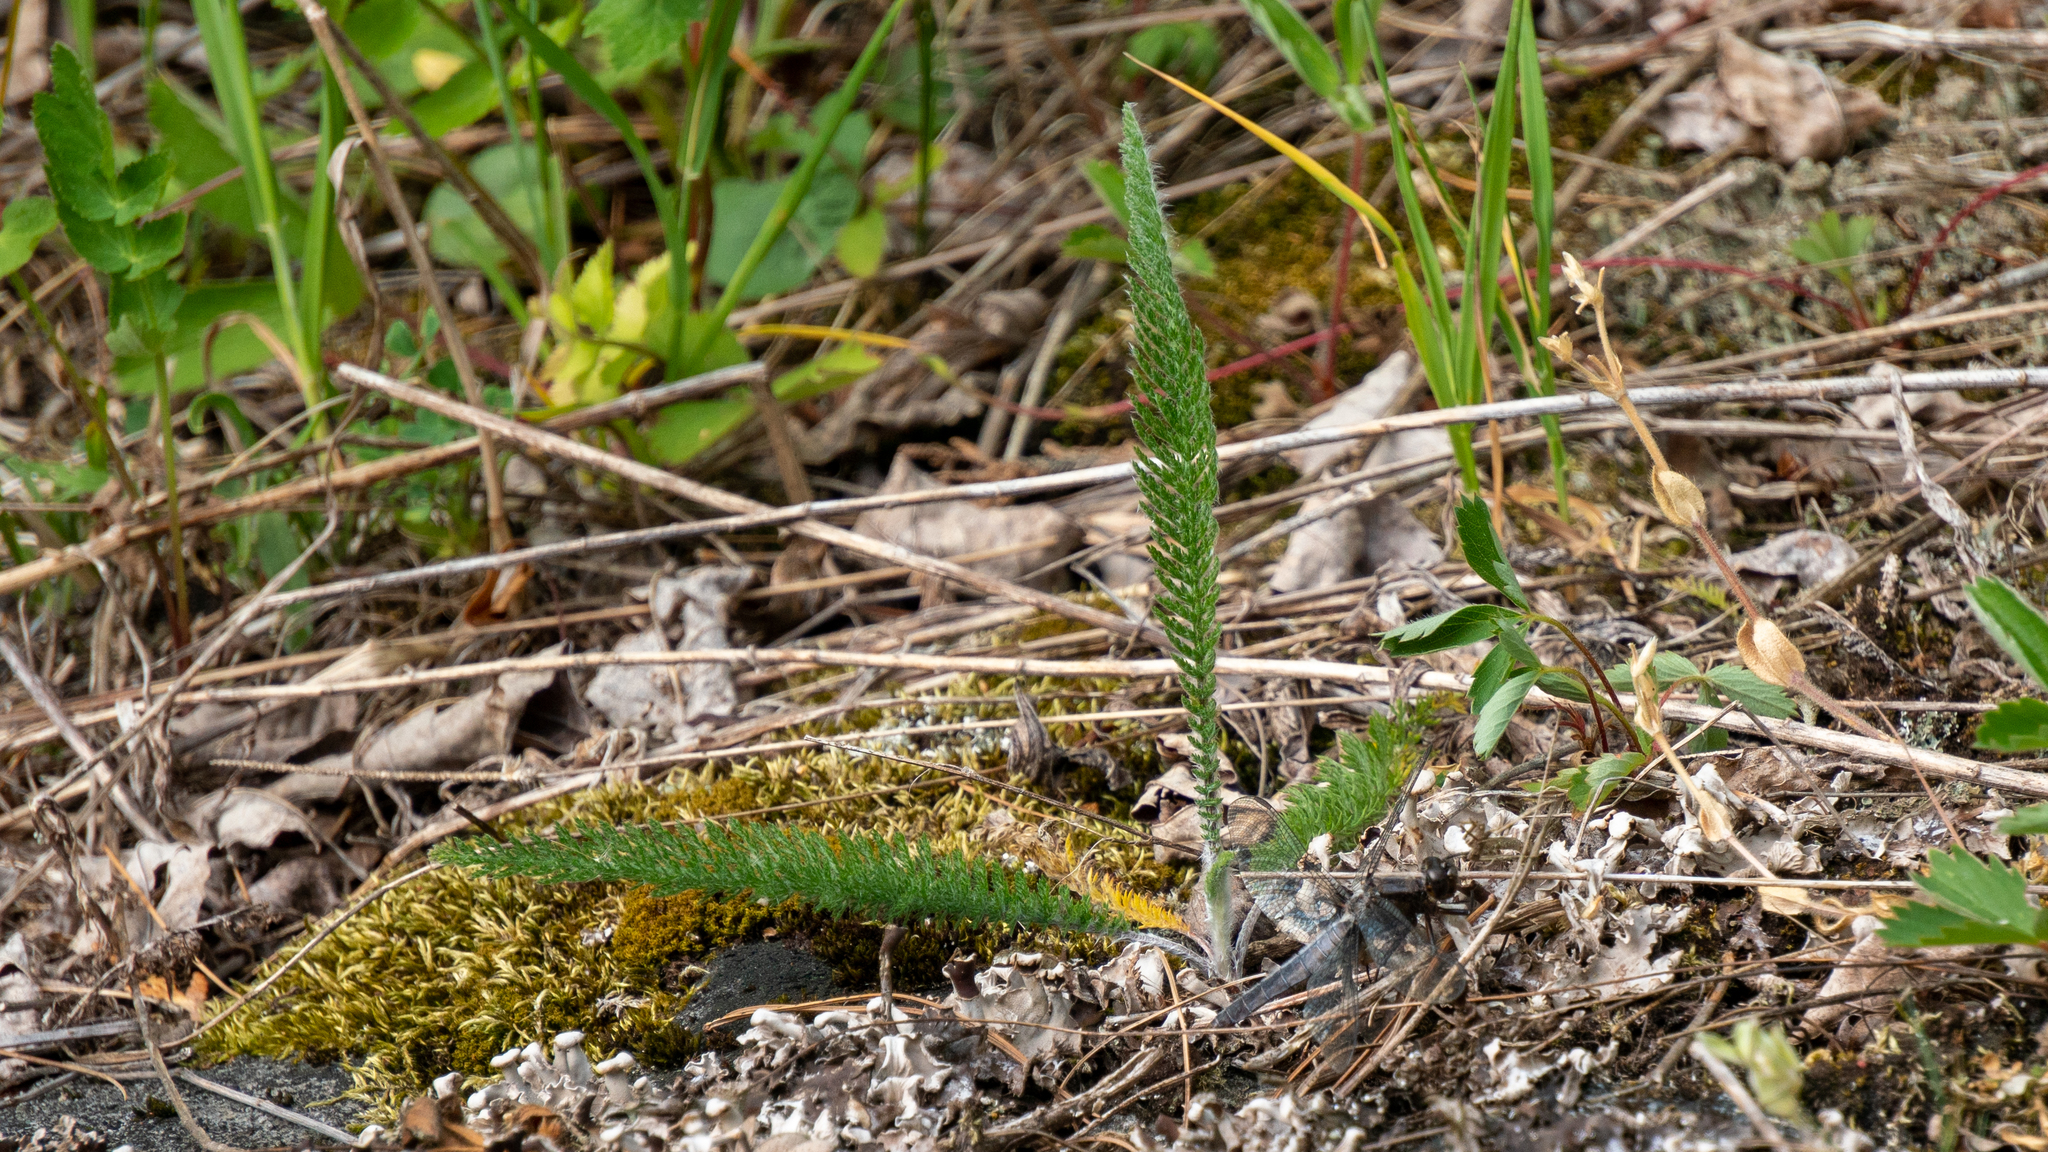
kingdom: Plantae
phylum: Tracheophyta
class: Magnoliopsida
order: Asterales
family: Asteraceae
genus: Achillea
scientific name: Achillea millefolium
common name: Yarrow
